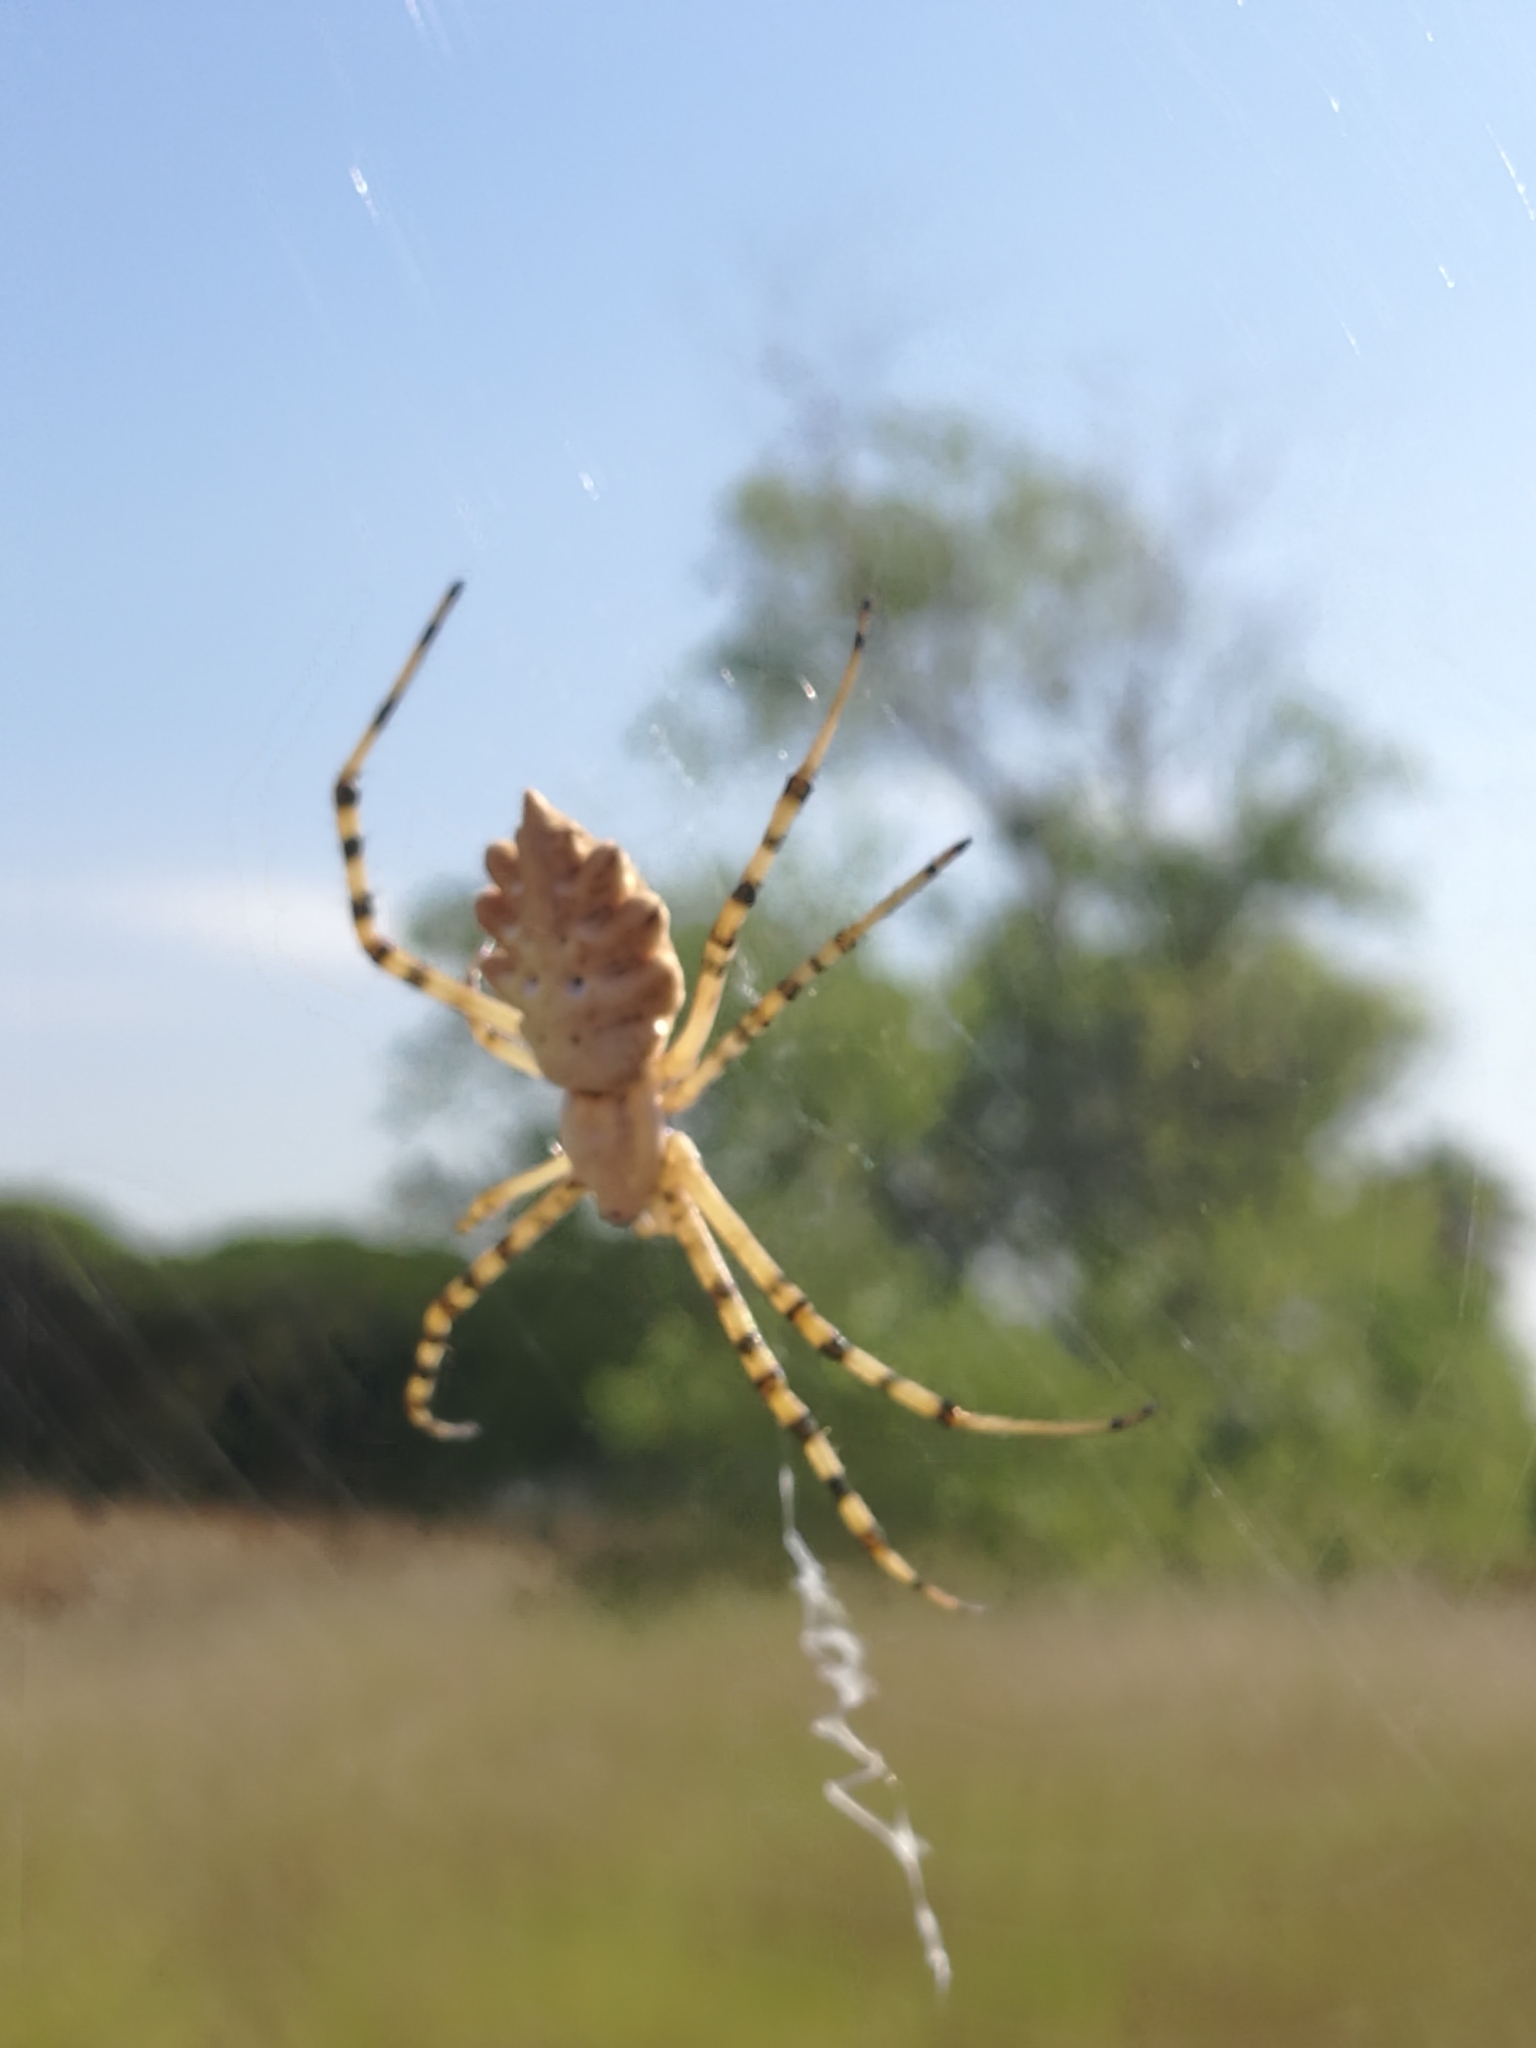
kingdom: Animalia
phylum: Arthropoda
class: Arachnida
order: Araneae
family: Araneidae
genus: Argiope
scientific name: Argiope lobata
